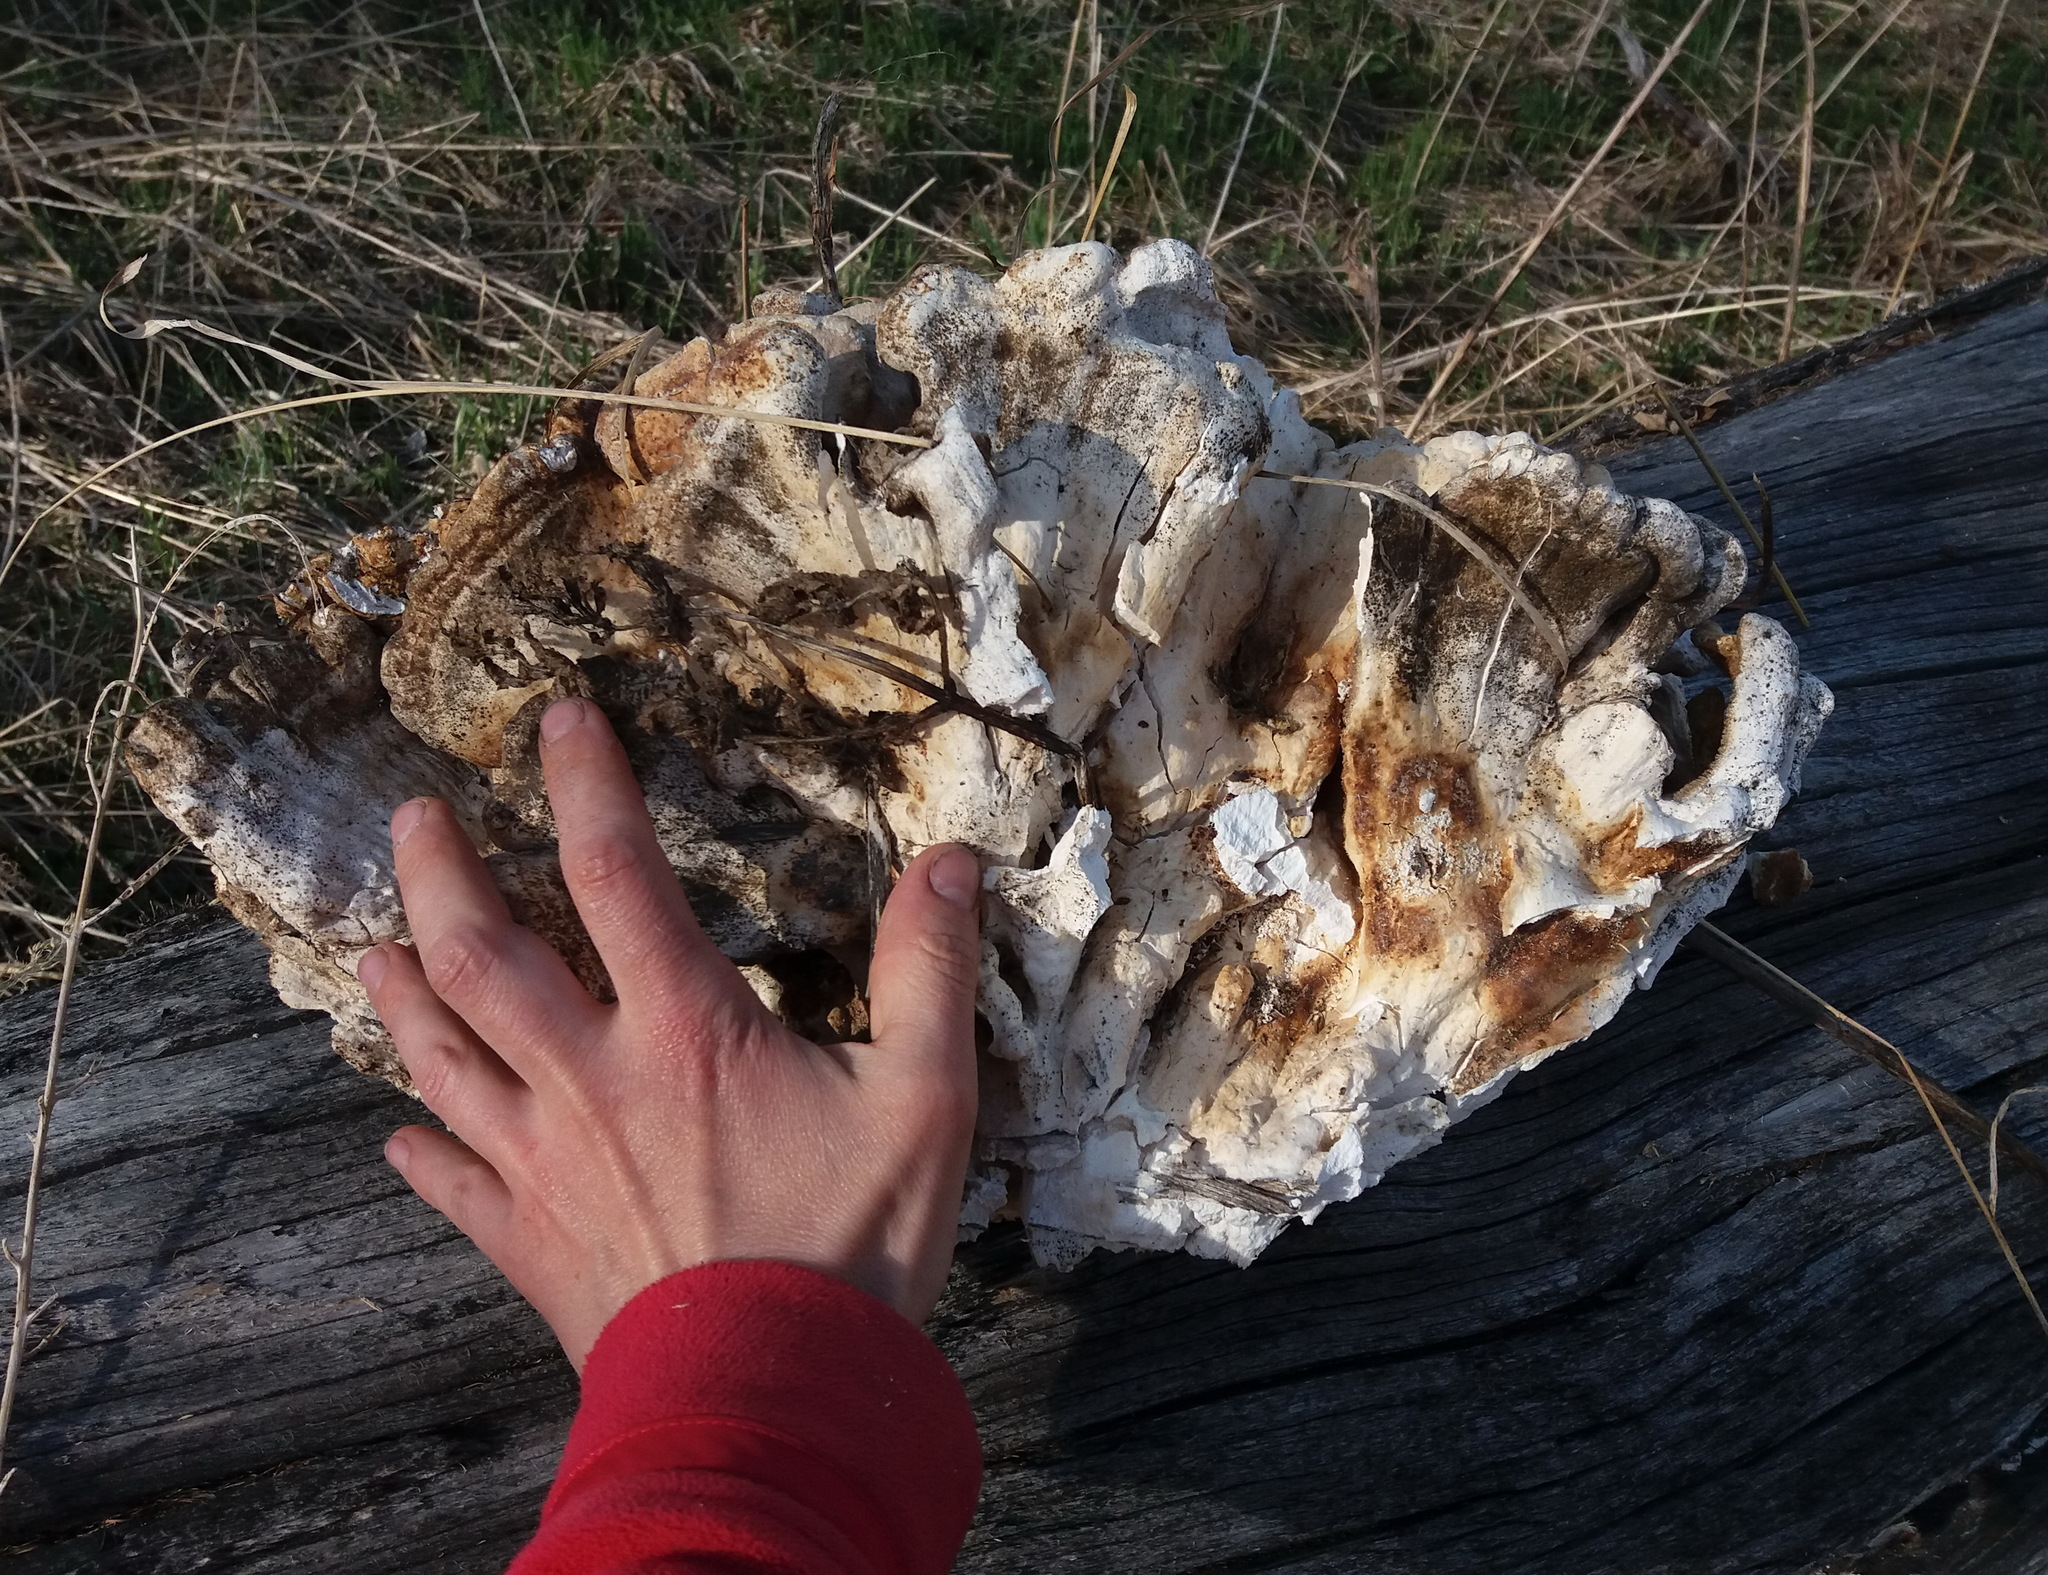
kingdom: Fungi
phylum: Basidiomycota
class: Agaricomycetes
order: Polyporales
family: Laetiporaceae
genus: Laetiporus
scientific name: Laetiporus sulphureus
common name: Chicken of the woods
